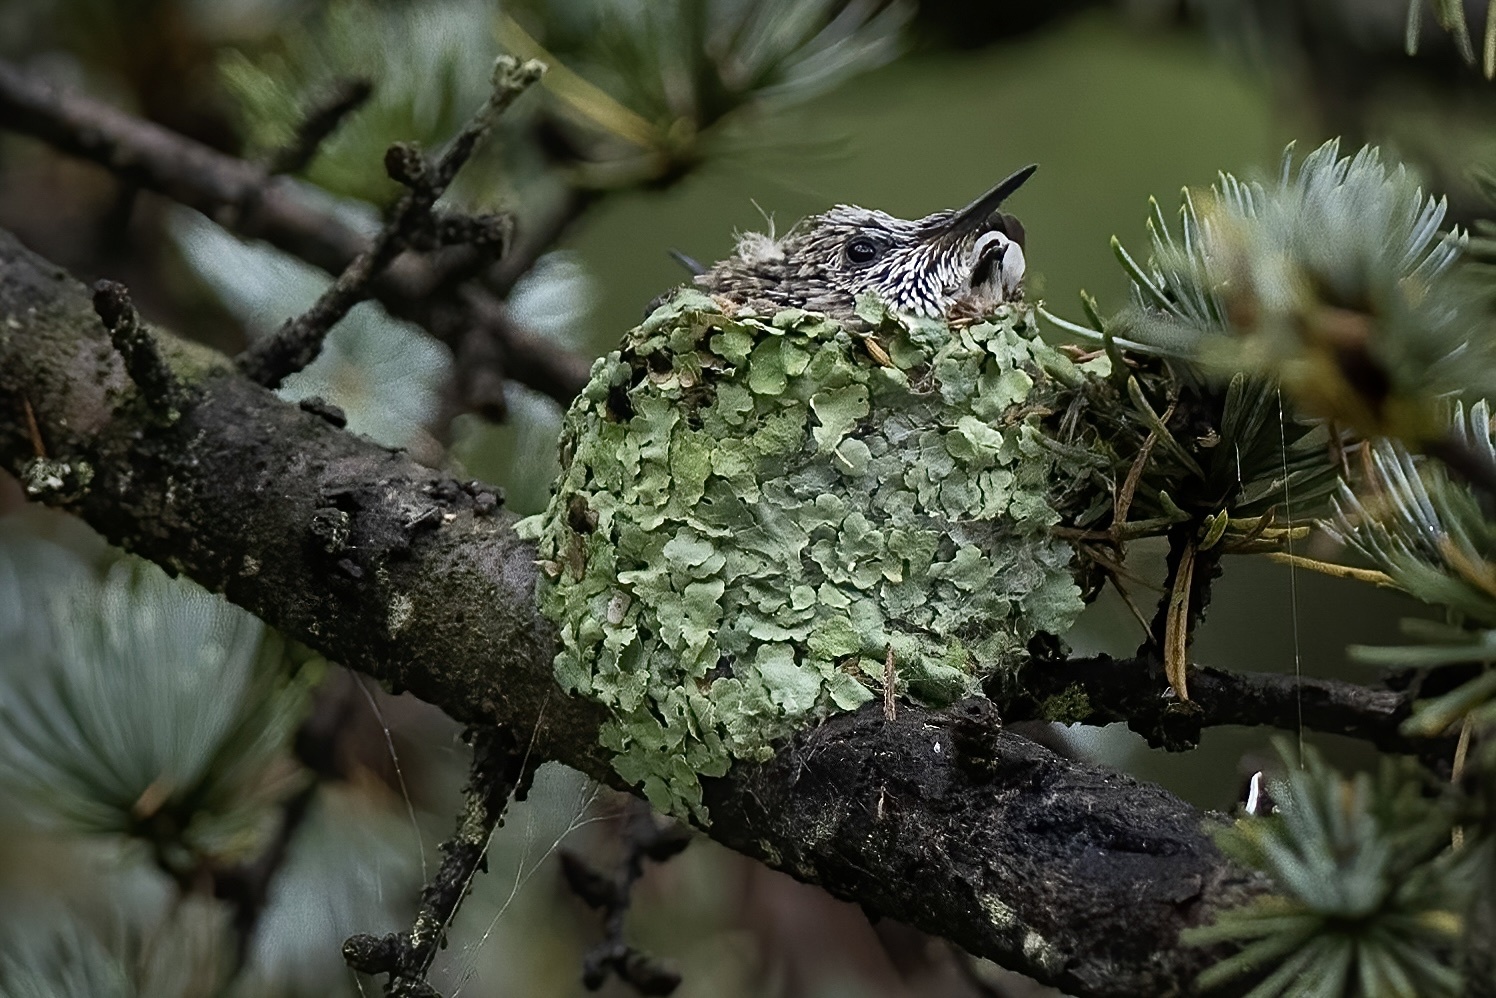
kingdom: Animalia
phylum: Chordata
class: Aves
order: Apodiformes
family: Trochilidae
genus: Archilochus
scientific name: Archilochus colubris
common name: Ruby-throated hummingbird
